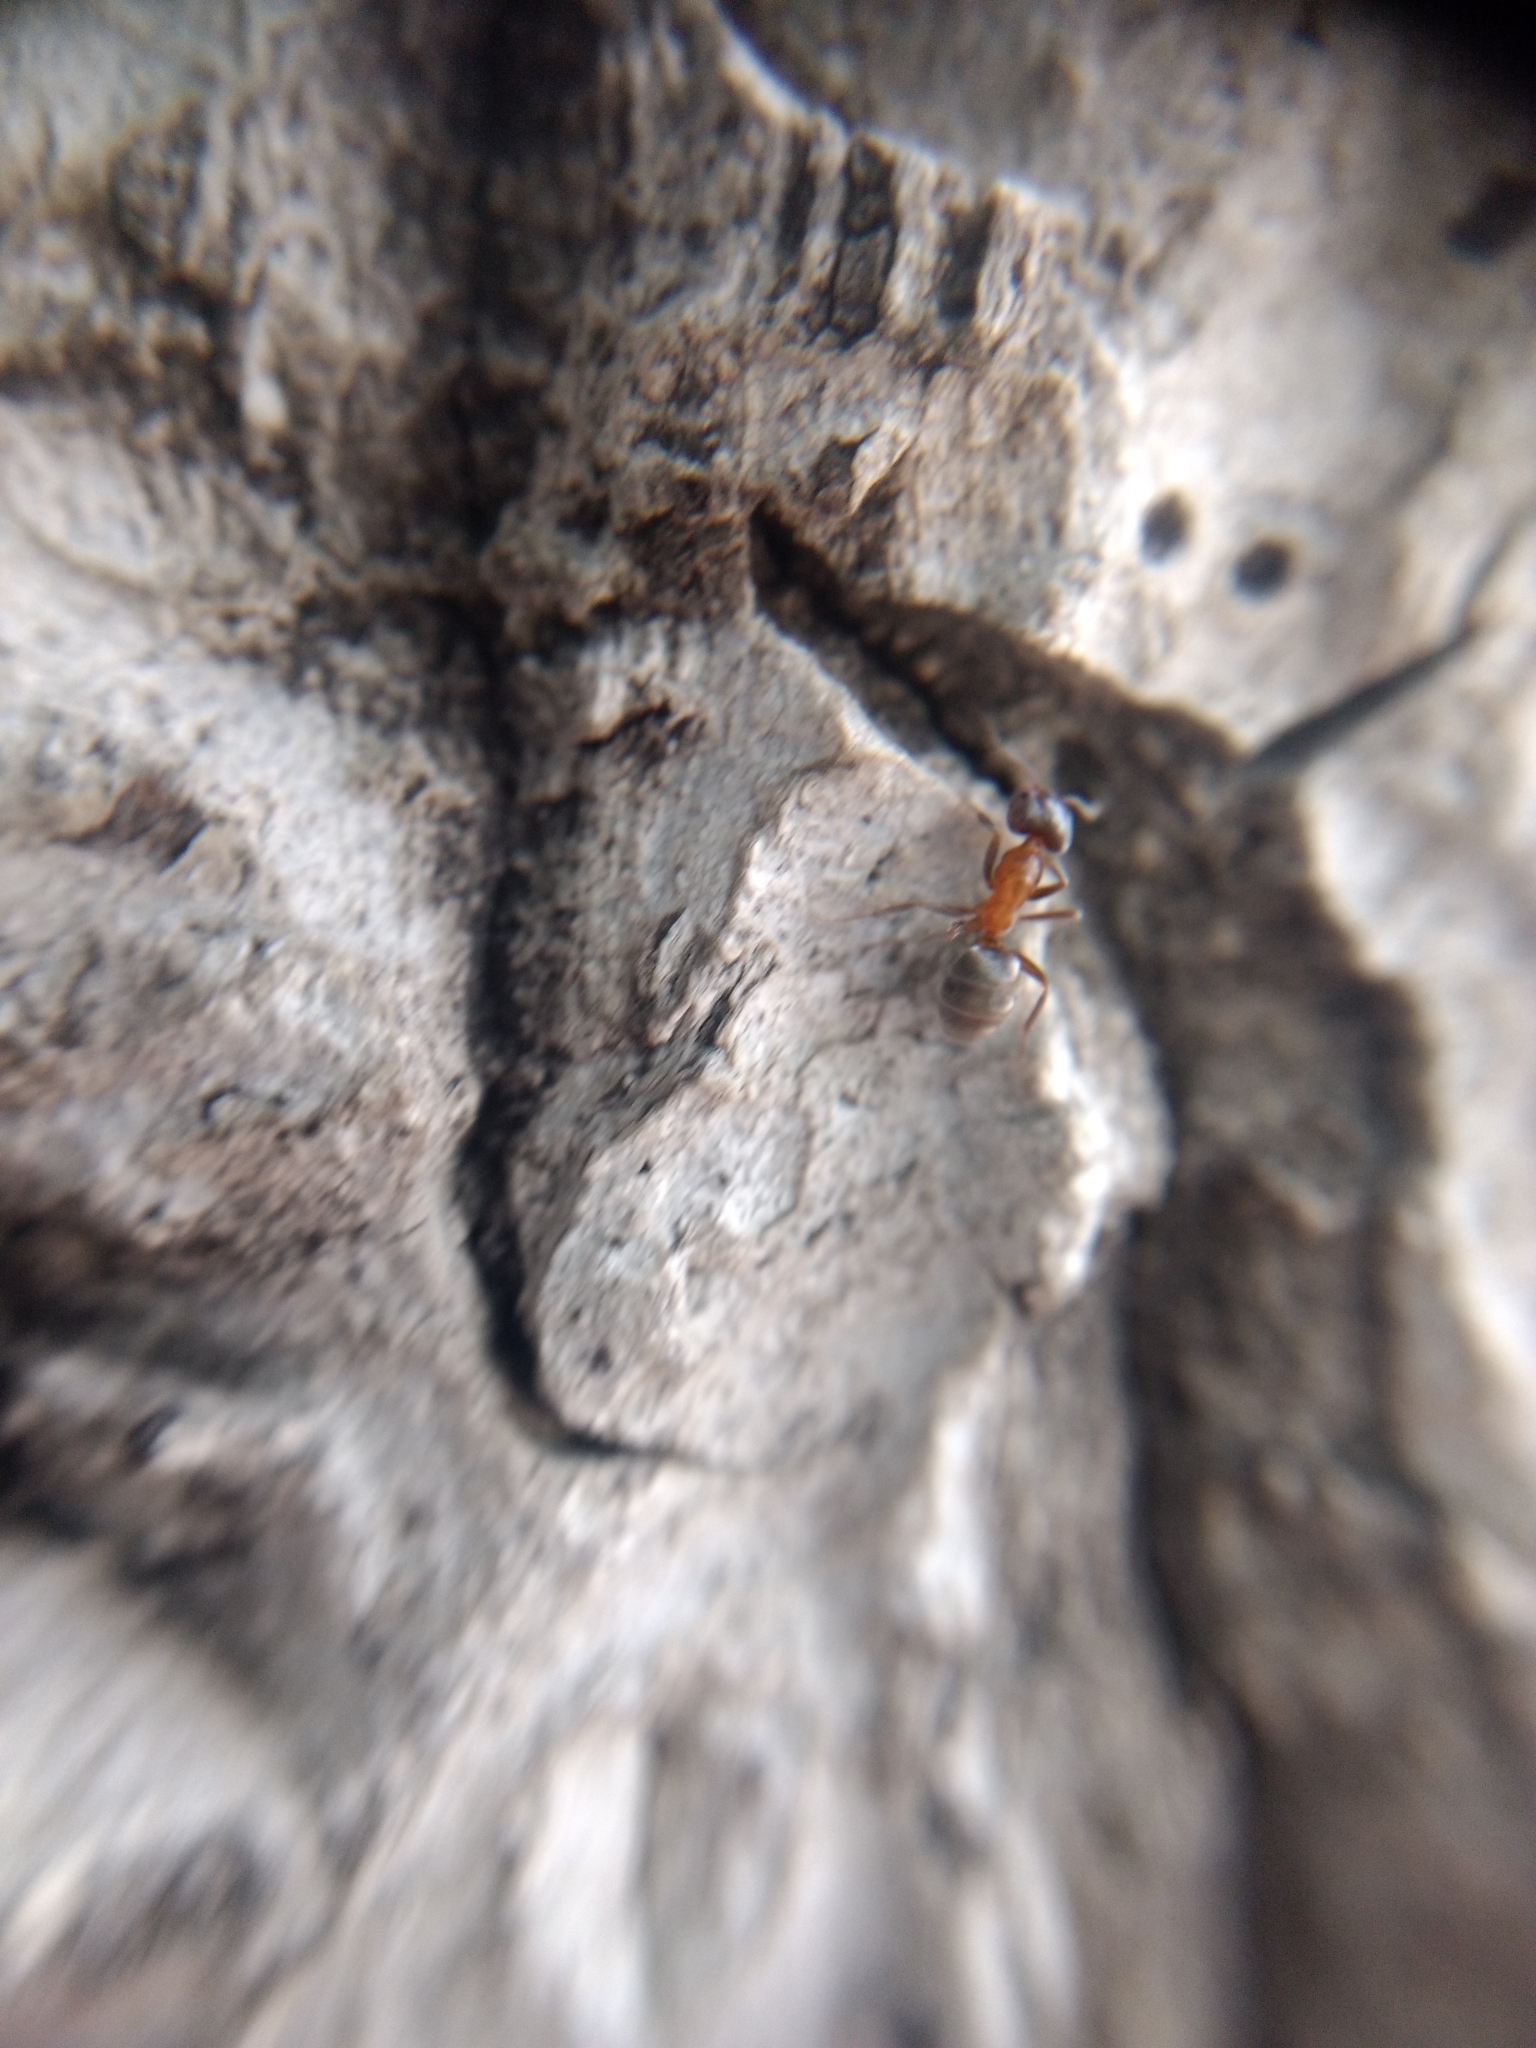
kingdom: Animalia
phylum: Arthropoda
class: Insecta
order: Hymenoptera
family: Formicidae
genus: Liometopum
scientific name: Liometopum occidentale
